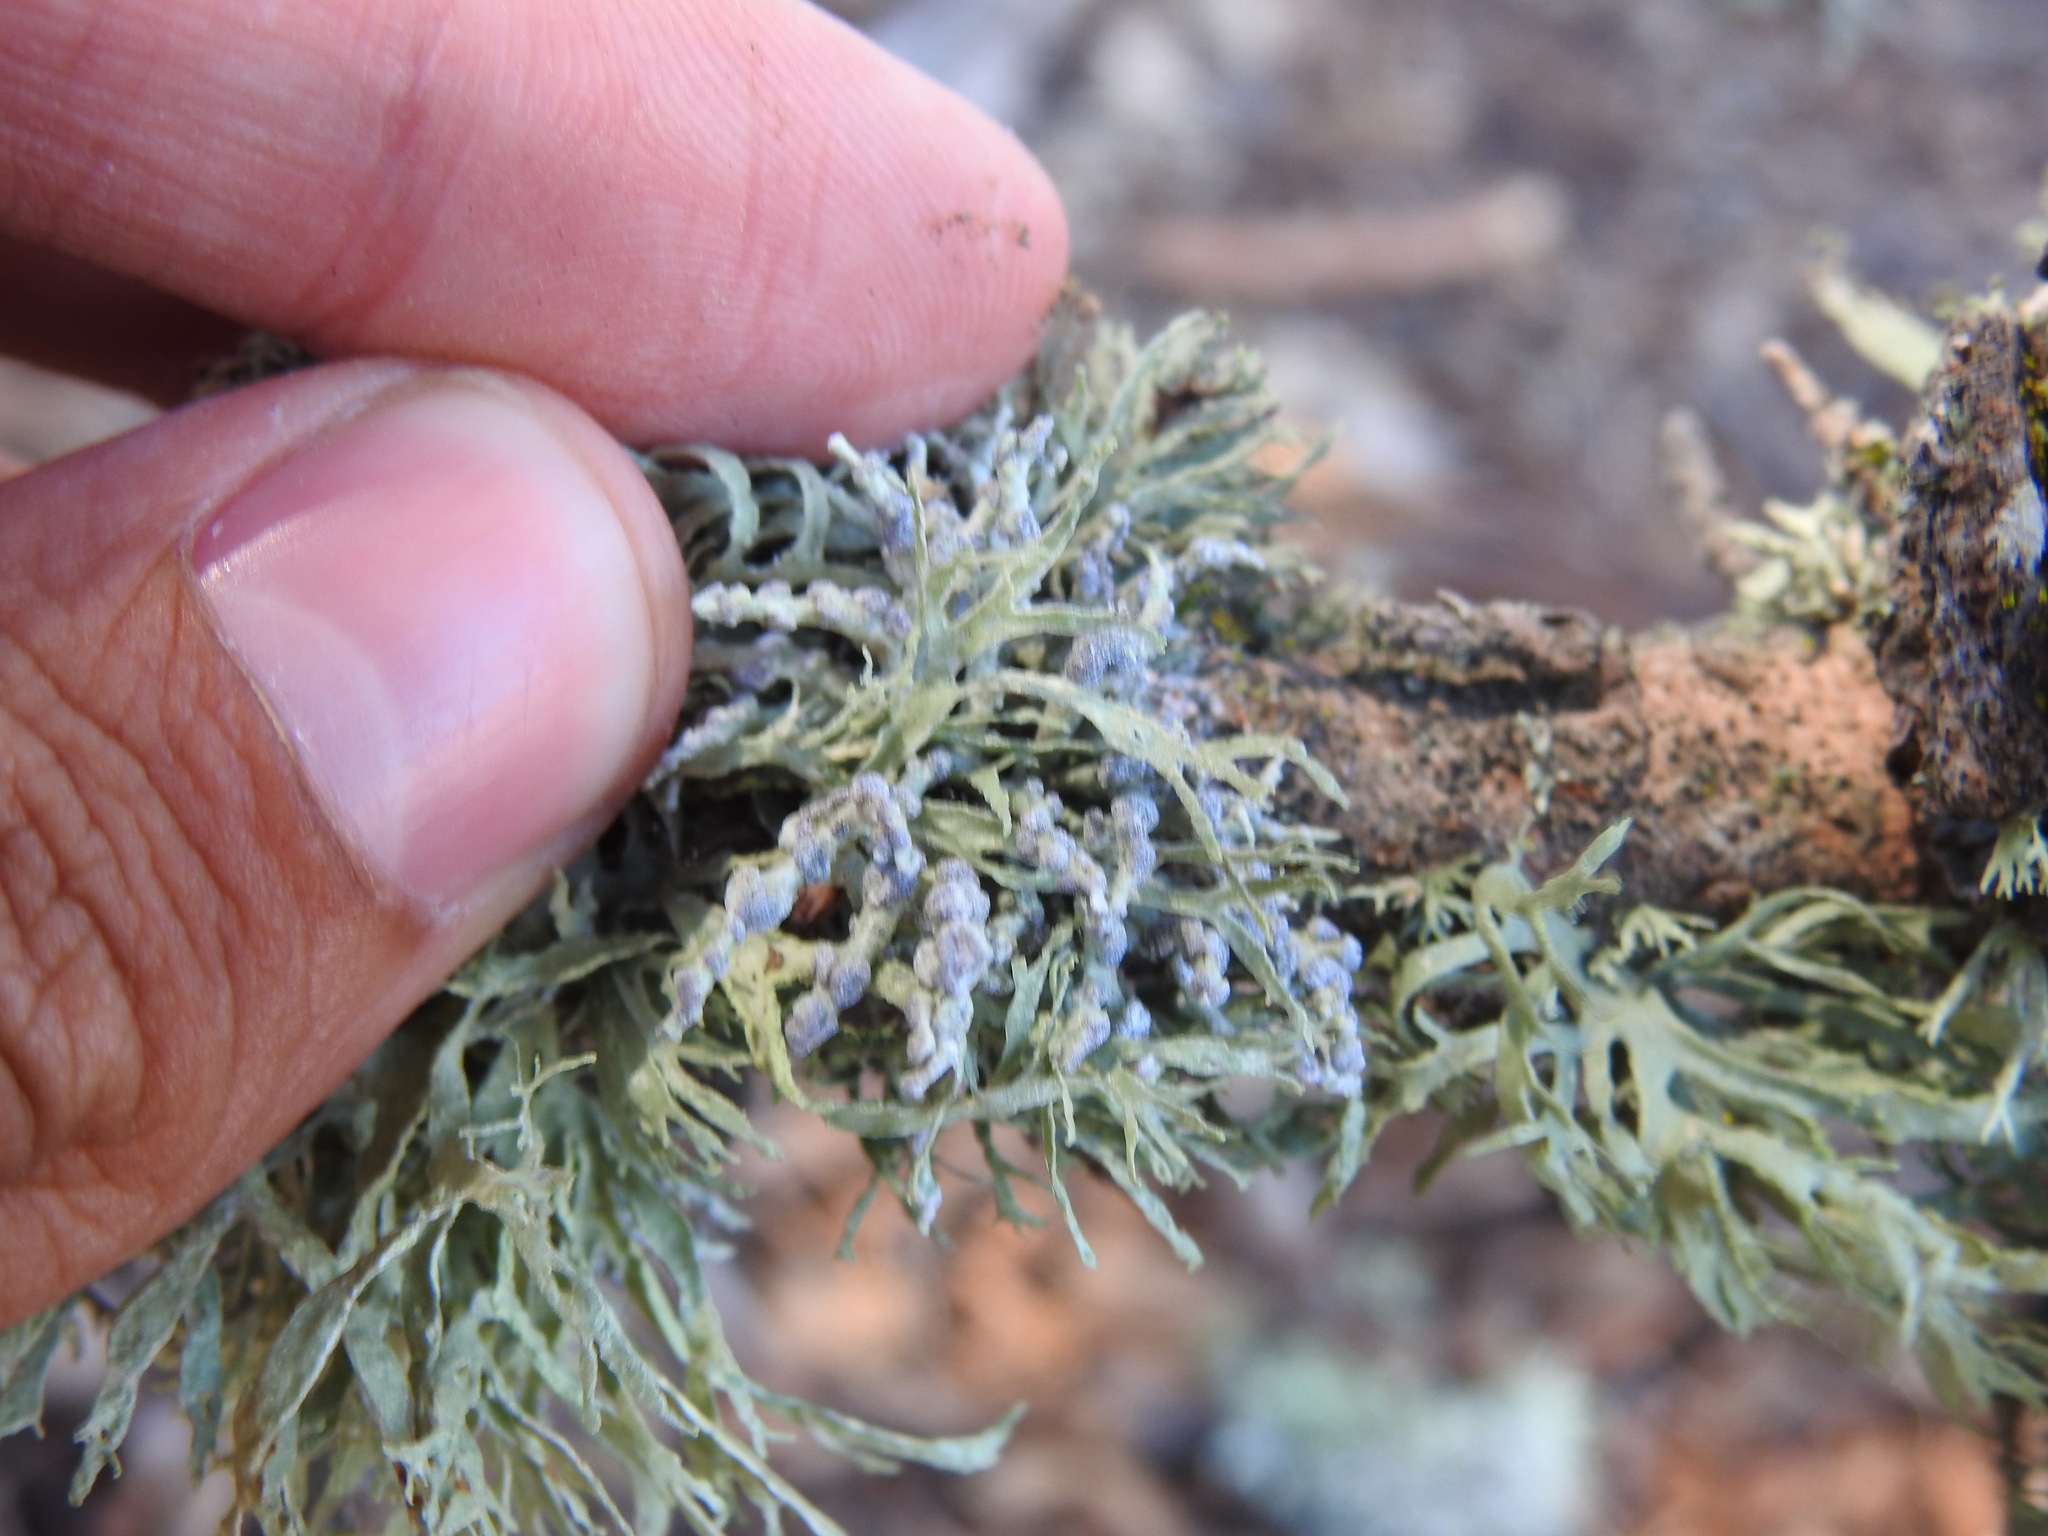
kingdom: Fungi
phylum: Ascomycota
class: Lecanoromycetes
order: Lecanorales
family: Ramalinaceae
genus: Niebla
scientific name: Niebla cephalota
